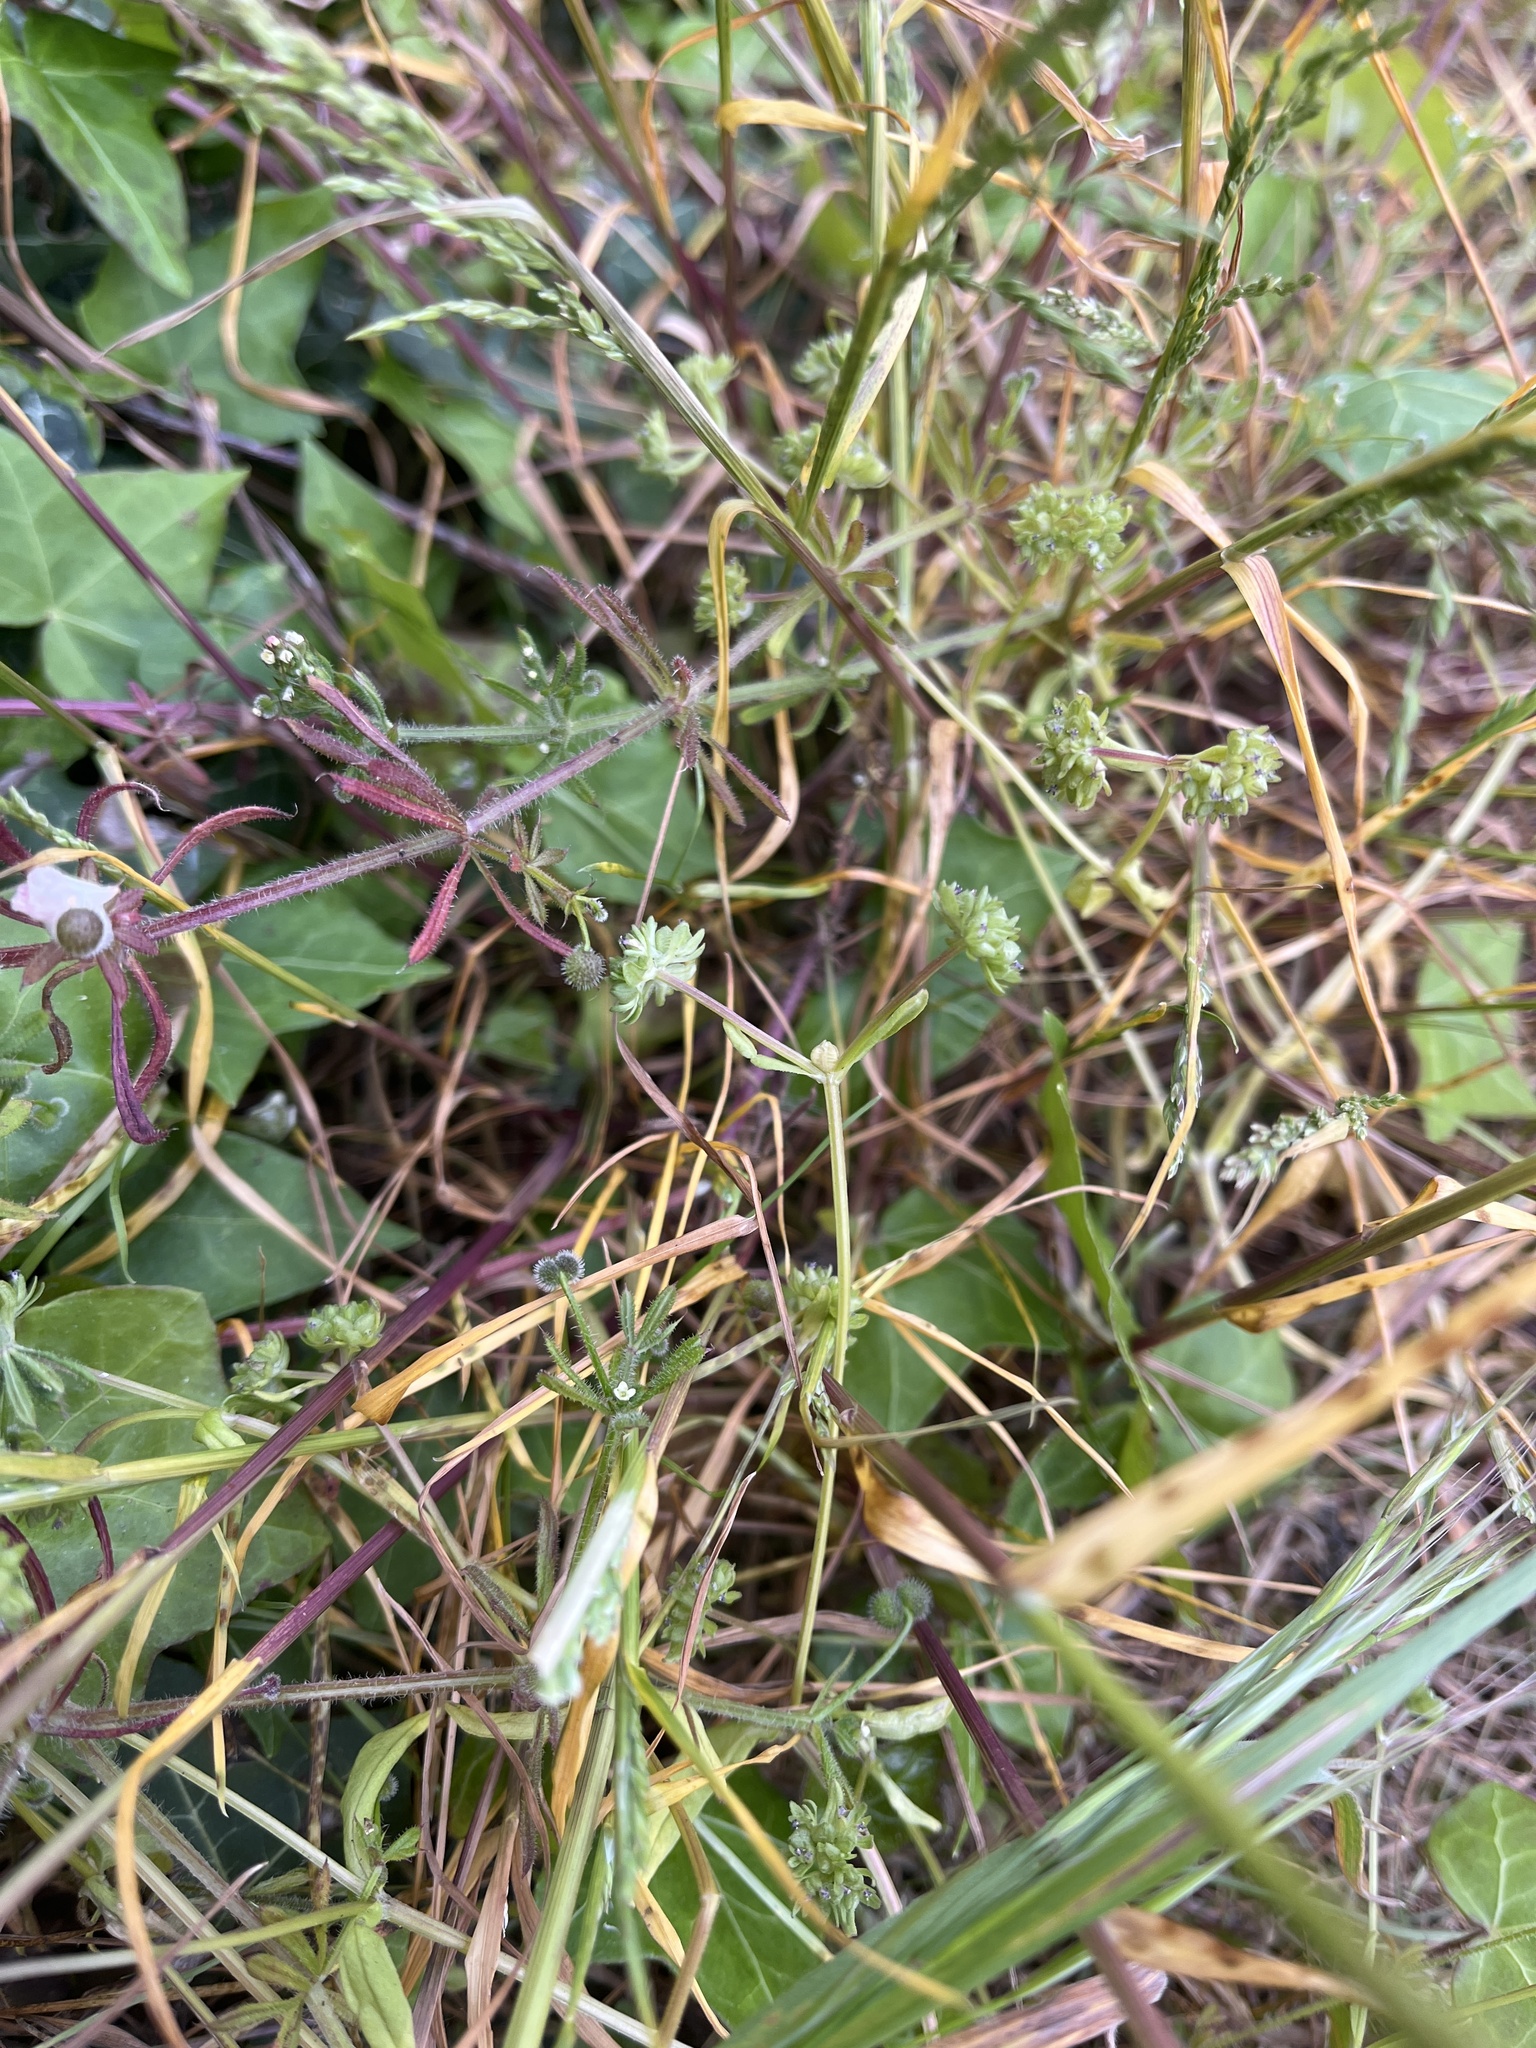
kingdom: Plantae
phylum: Tracheophyta
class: Magnoliopsida
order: Dipsacales
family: Caprifoliaceae
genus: Valerianella
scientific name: Valerianella locusta
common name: Common cornsalad
